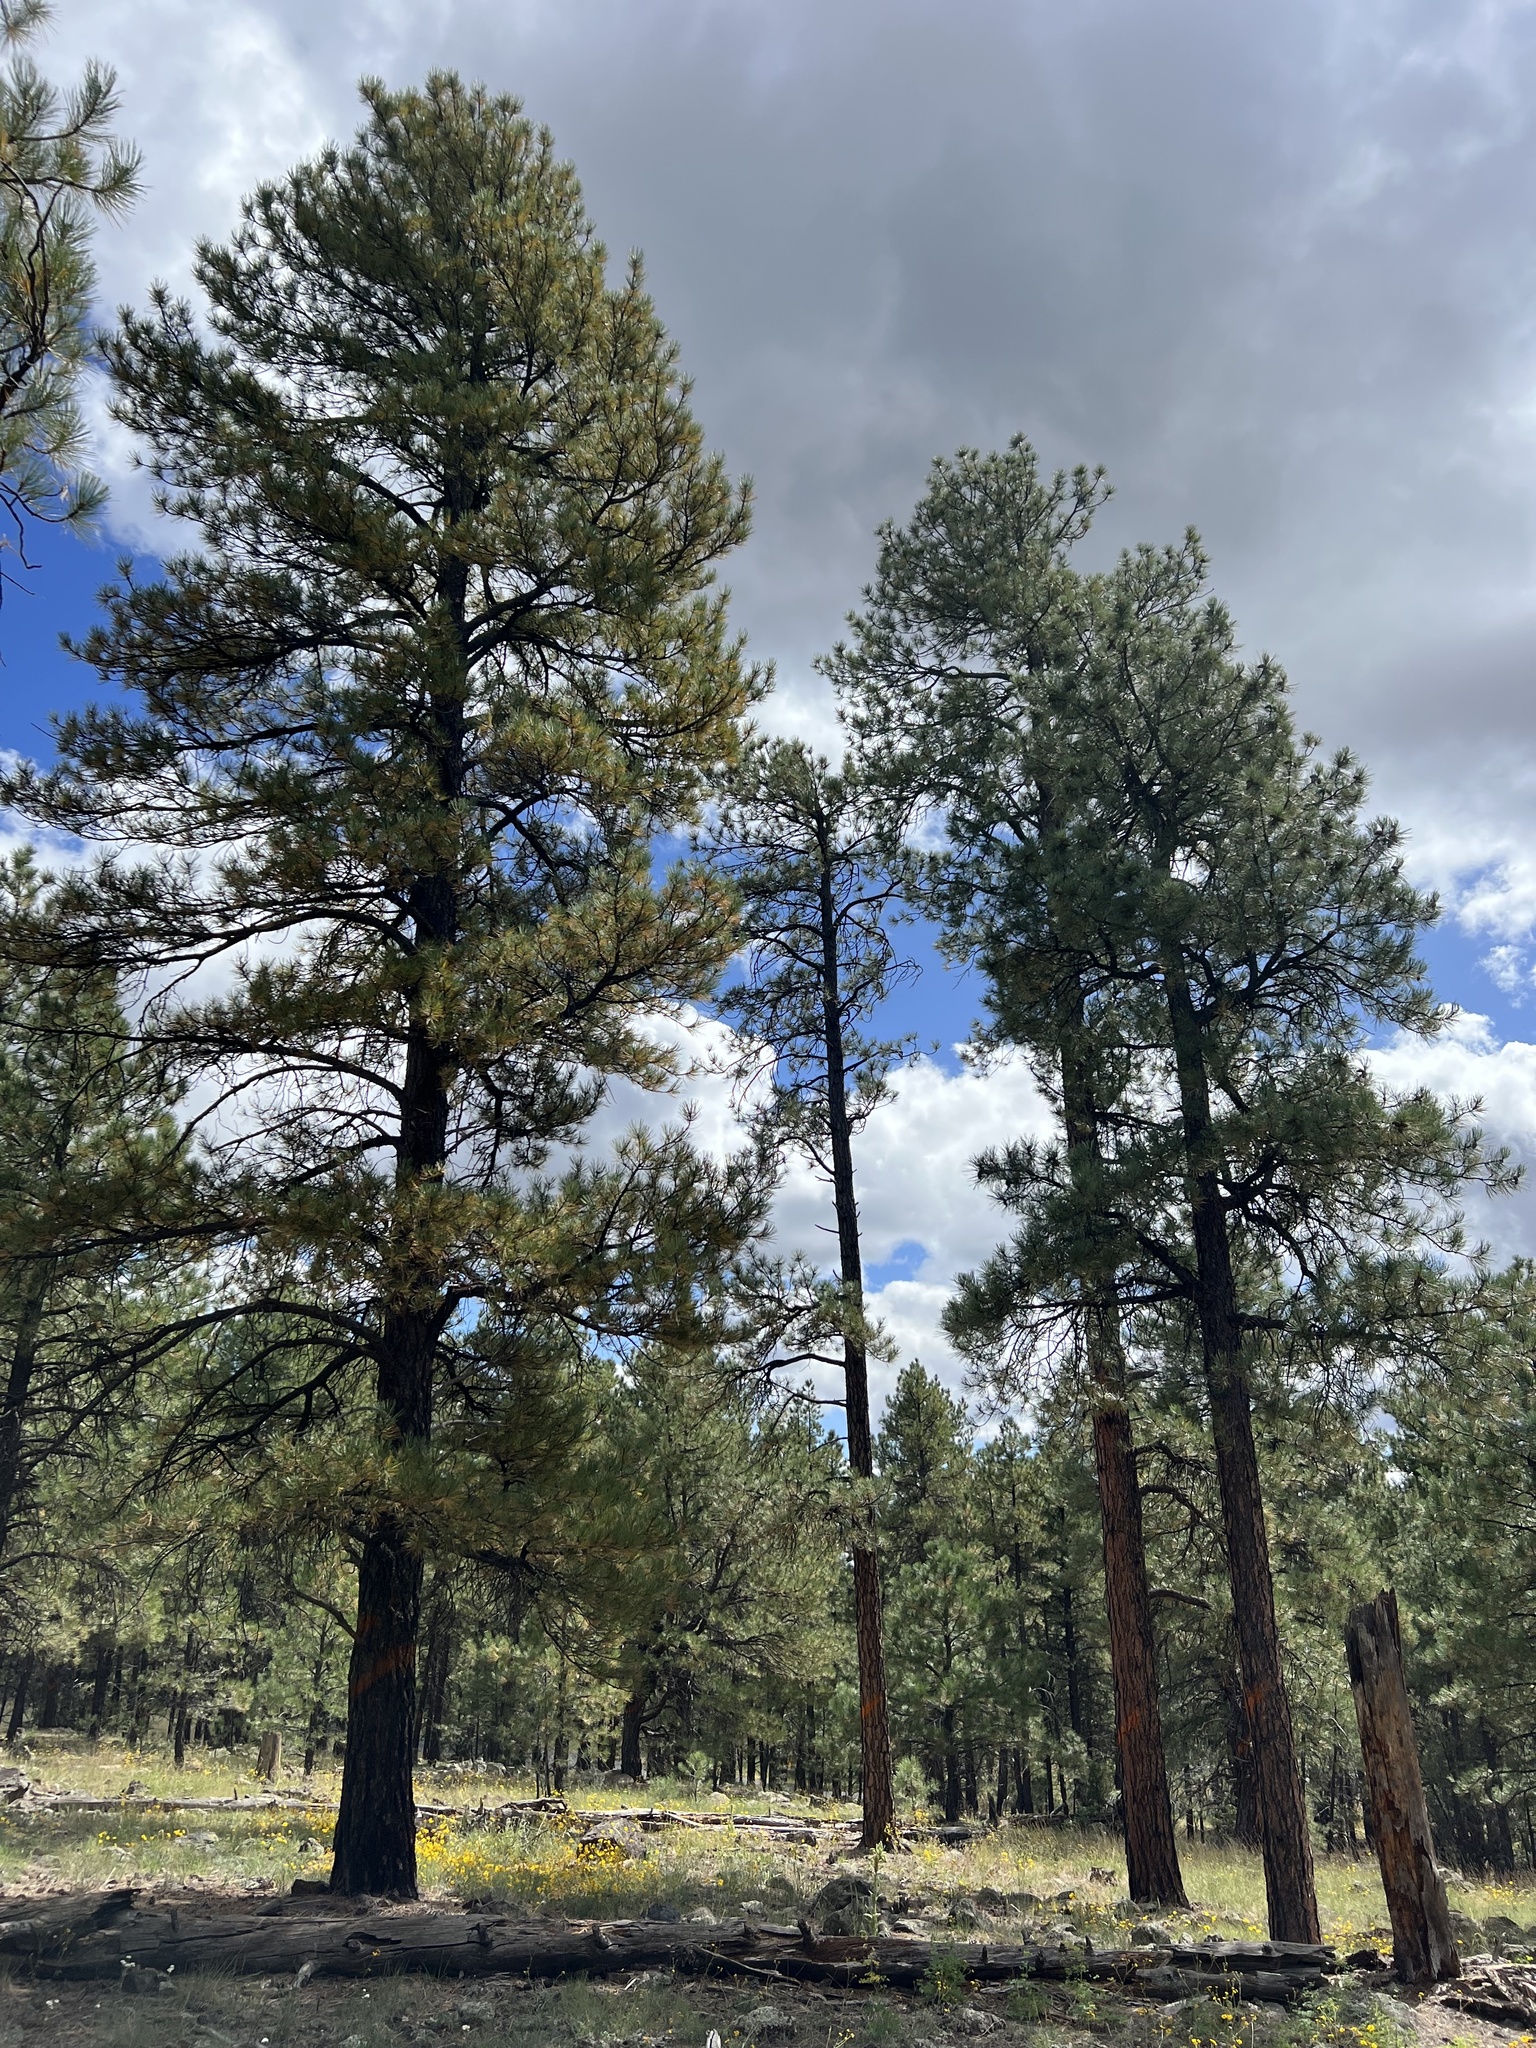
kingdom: Plantae
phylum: Tracheophyta
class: Pinopsida
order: Pinales
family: Pinaceae
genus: Pinus
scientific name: Pinus ponderosa
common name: Western yellow-pine
